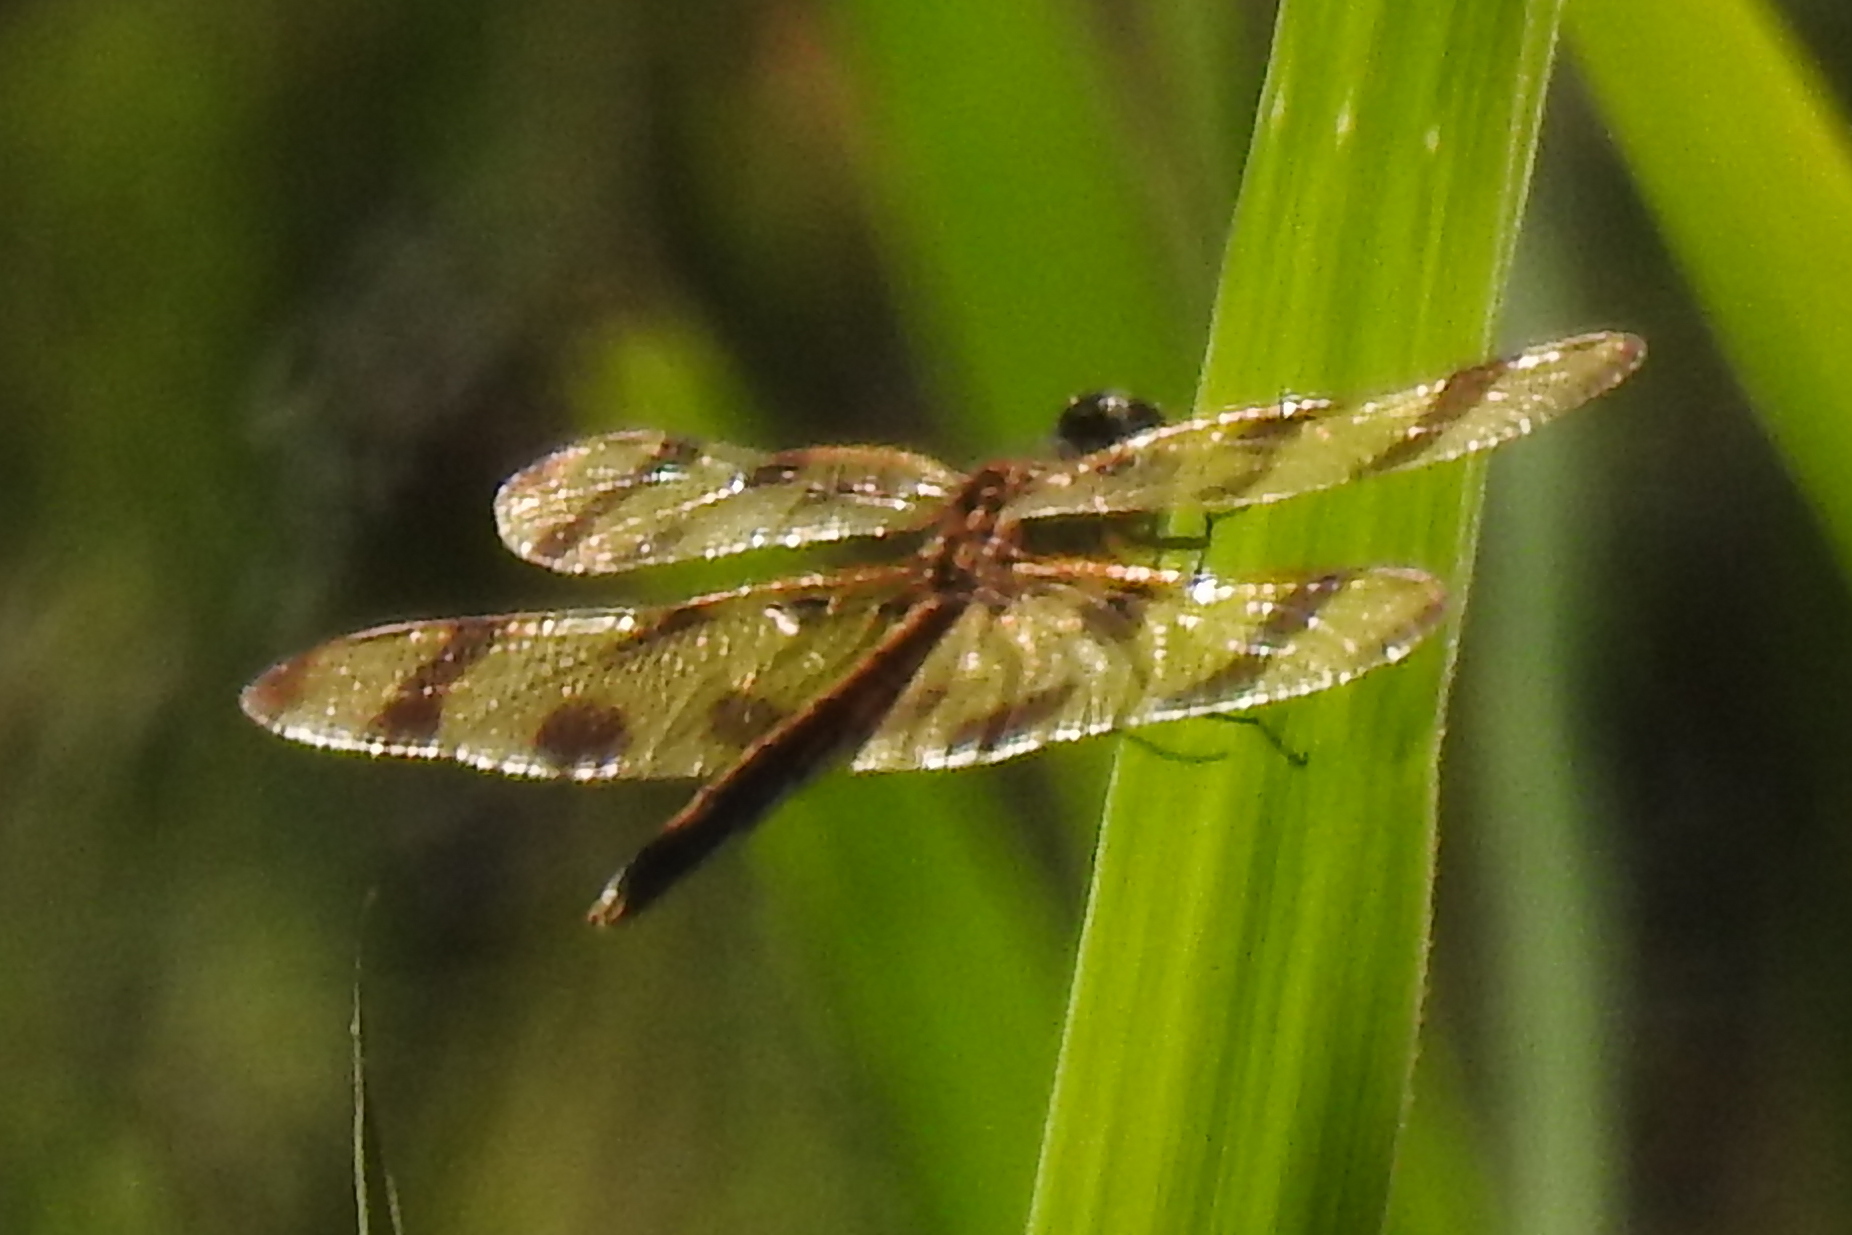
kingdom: Animalia
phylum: Arthropoda
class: Insecta
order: Odonata
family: Libellulidae
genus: Celithemis
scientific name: Celithemis eponina
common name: Halloween pennant
